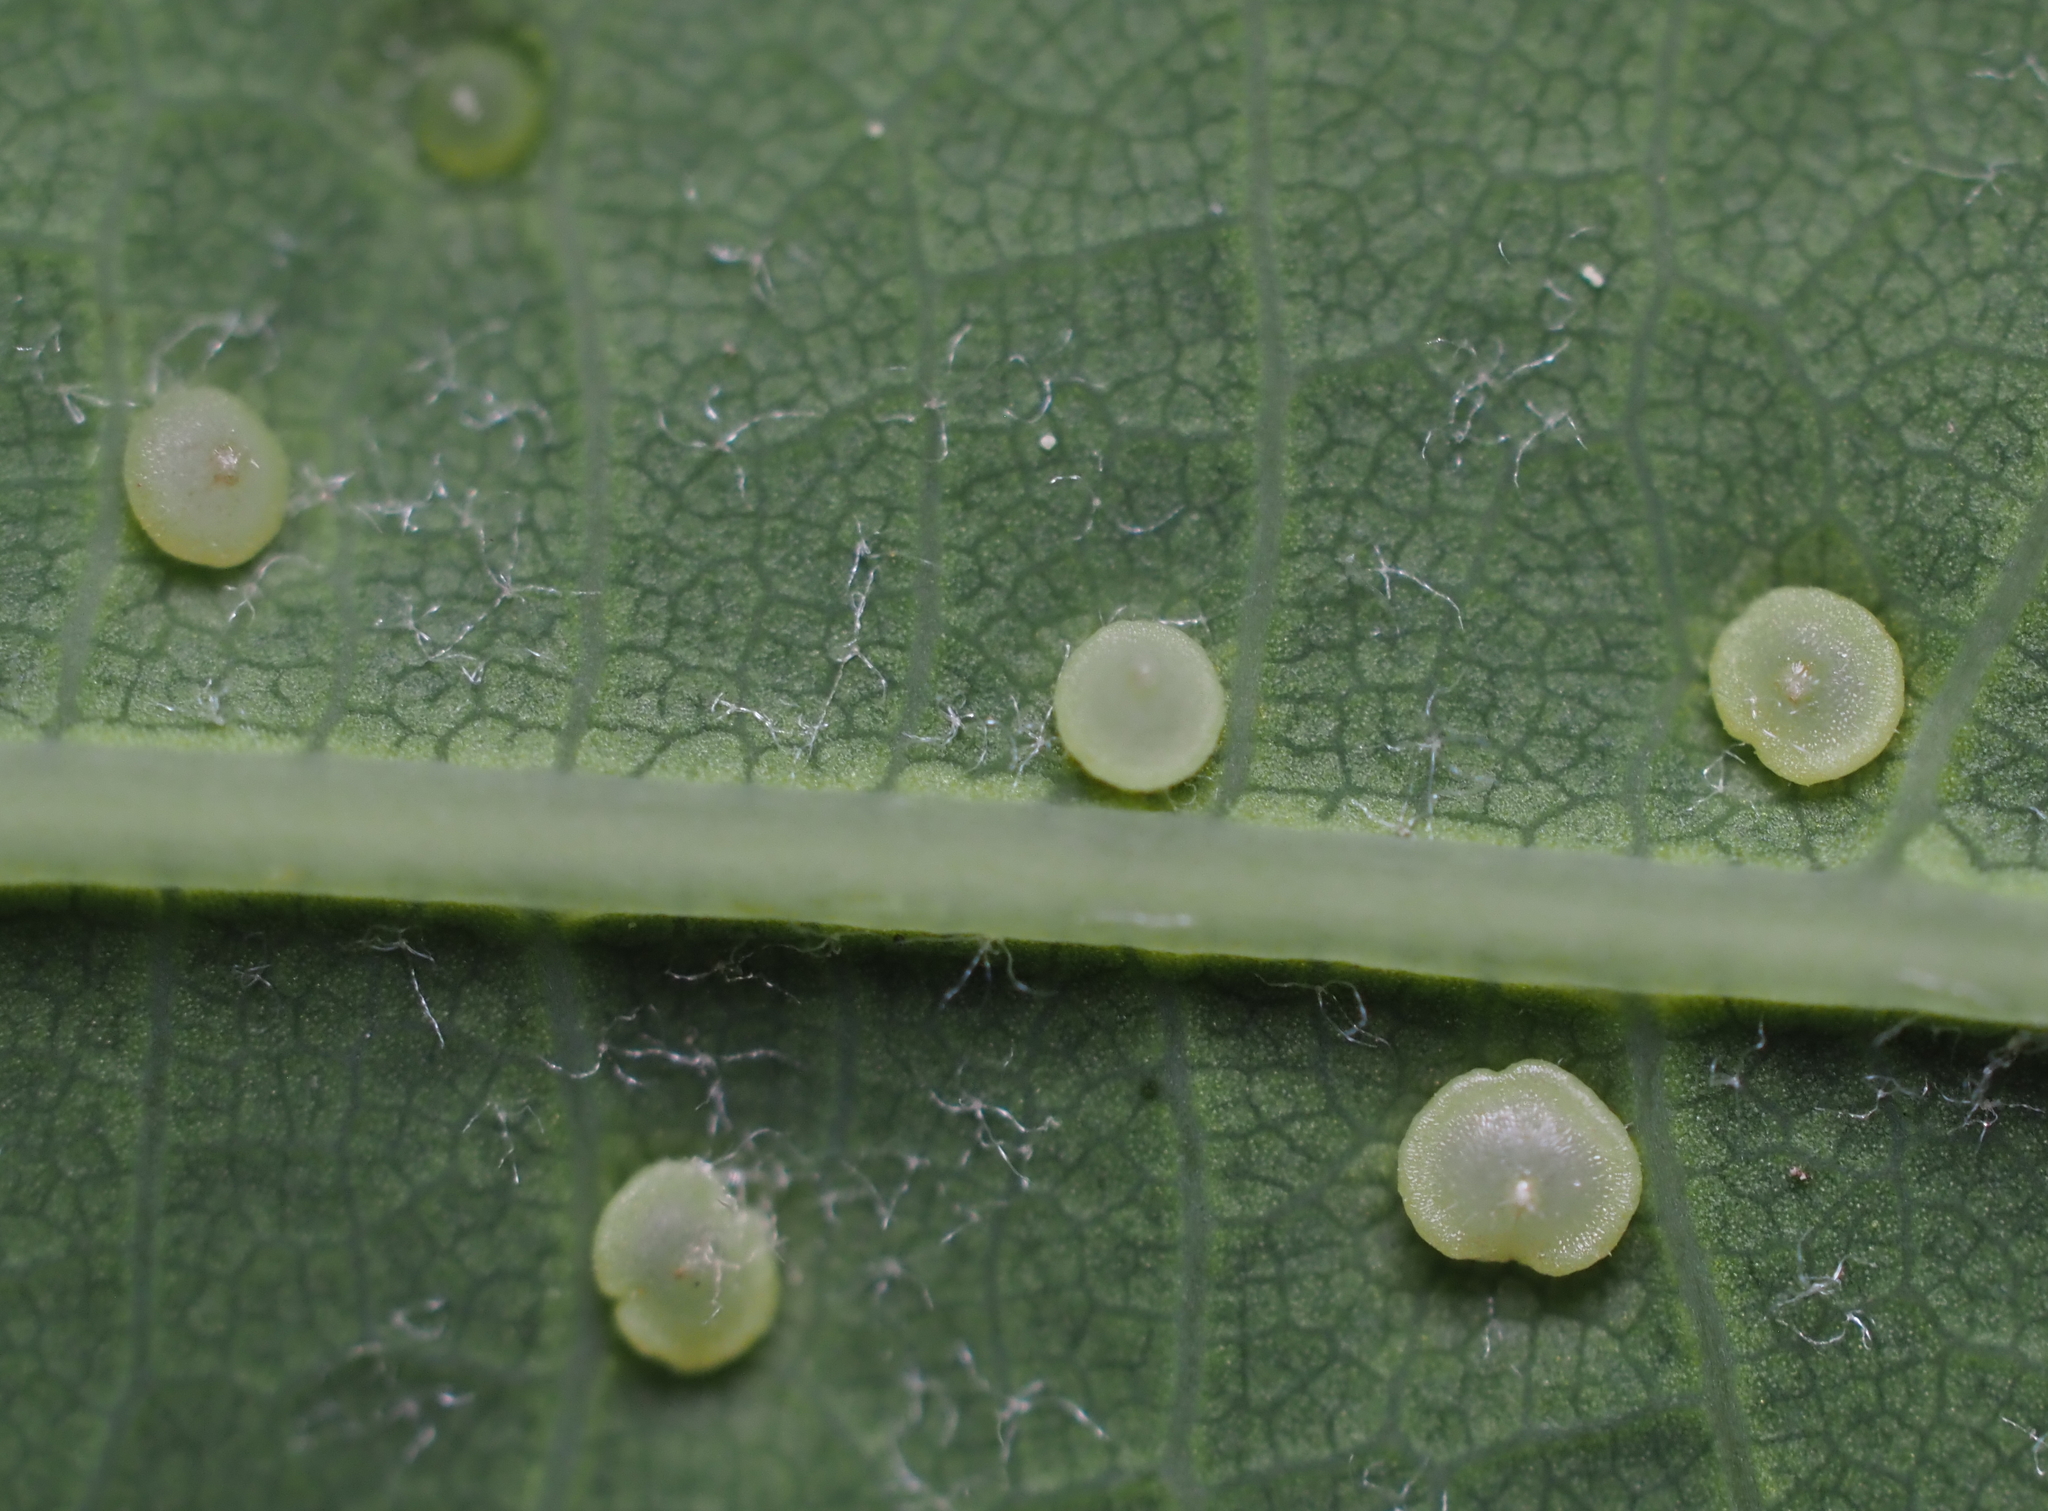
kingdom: Animalia
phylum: Arthropoda
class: Insecta
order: Hymenoptera
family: Cynipidae
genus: Neuroterus
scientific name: Neuroterus
